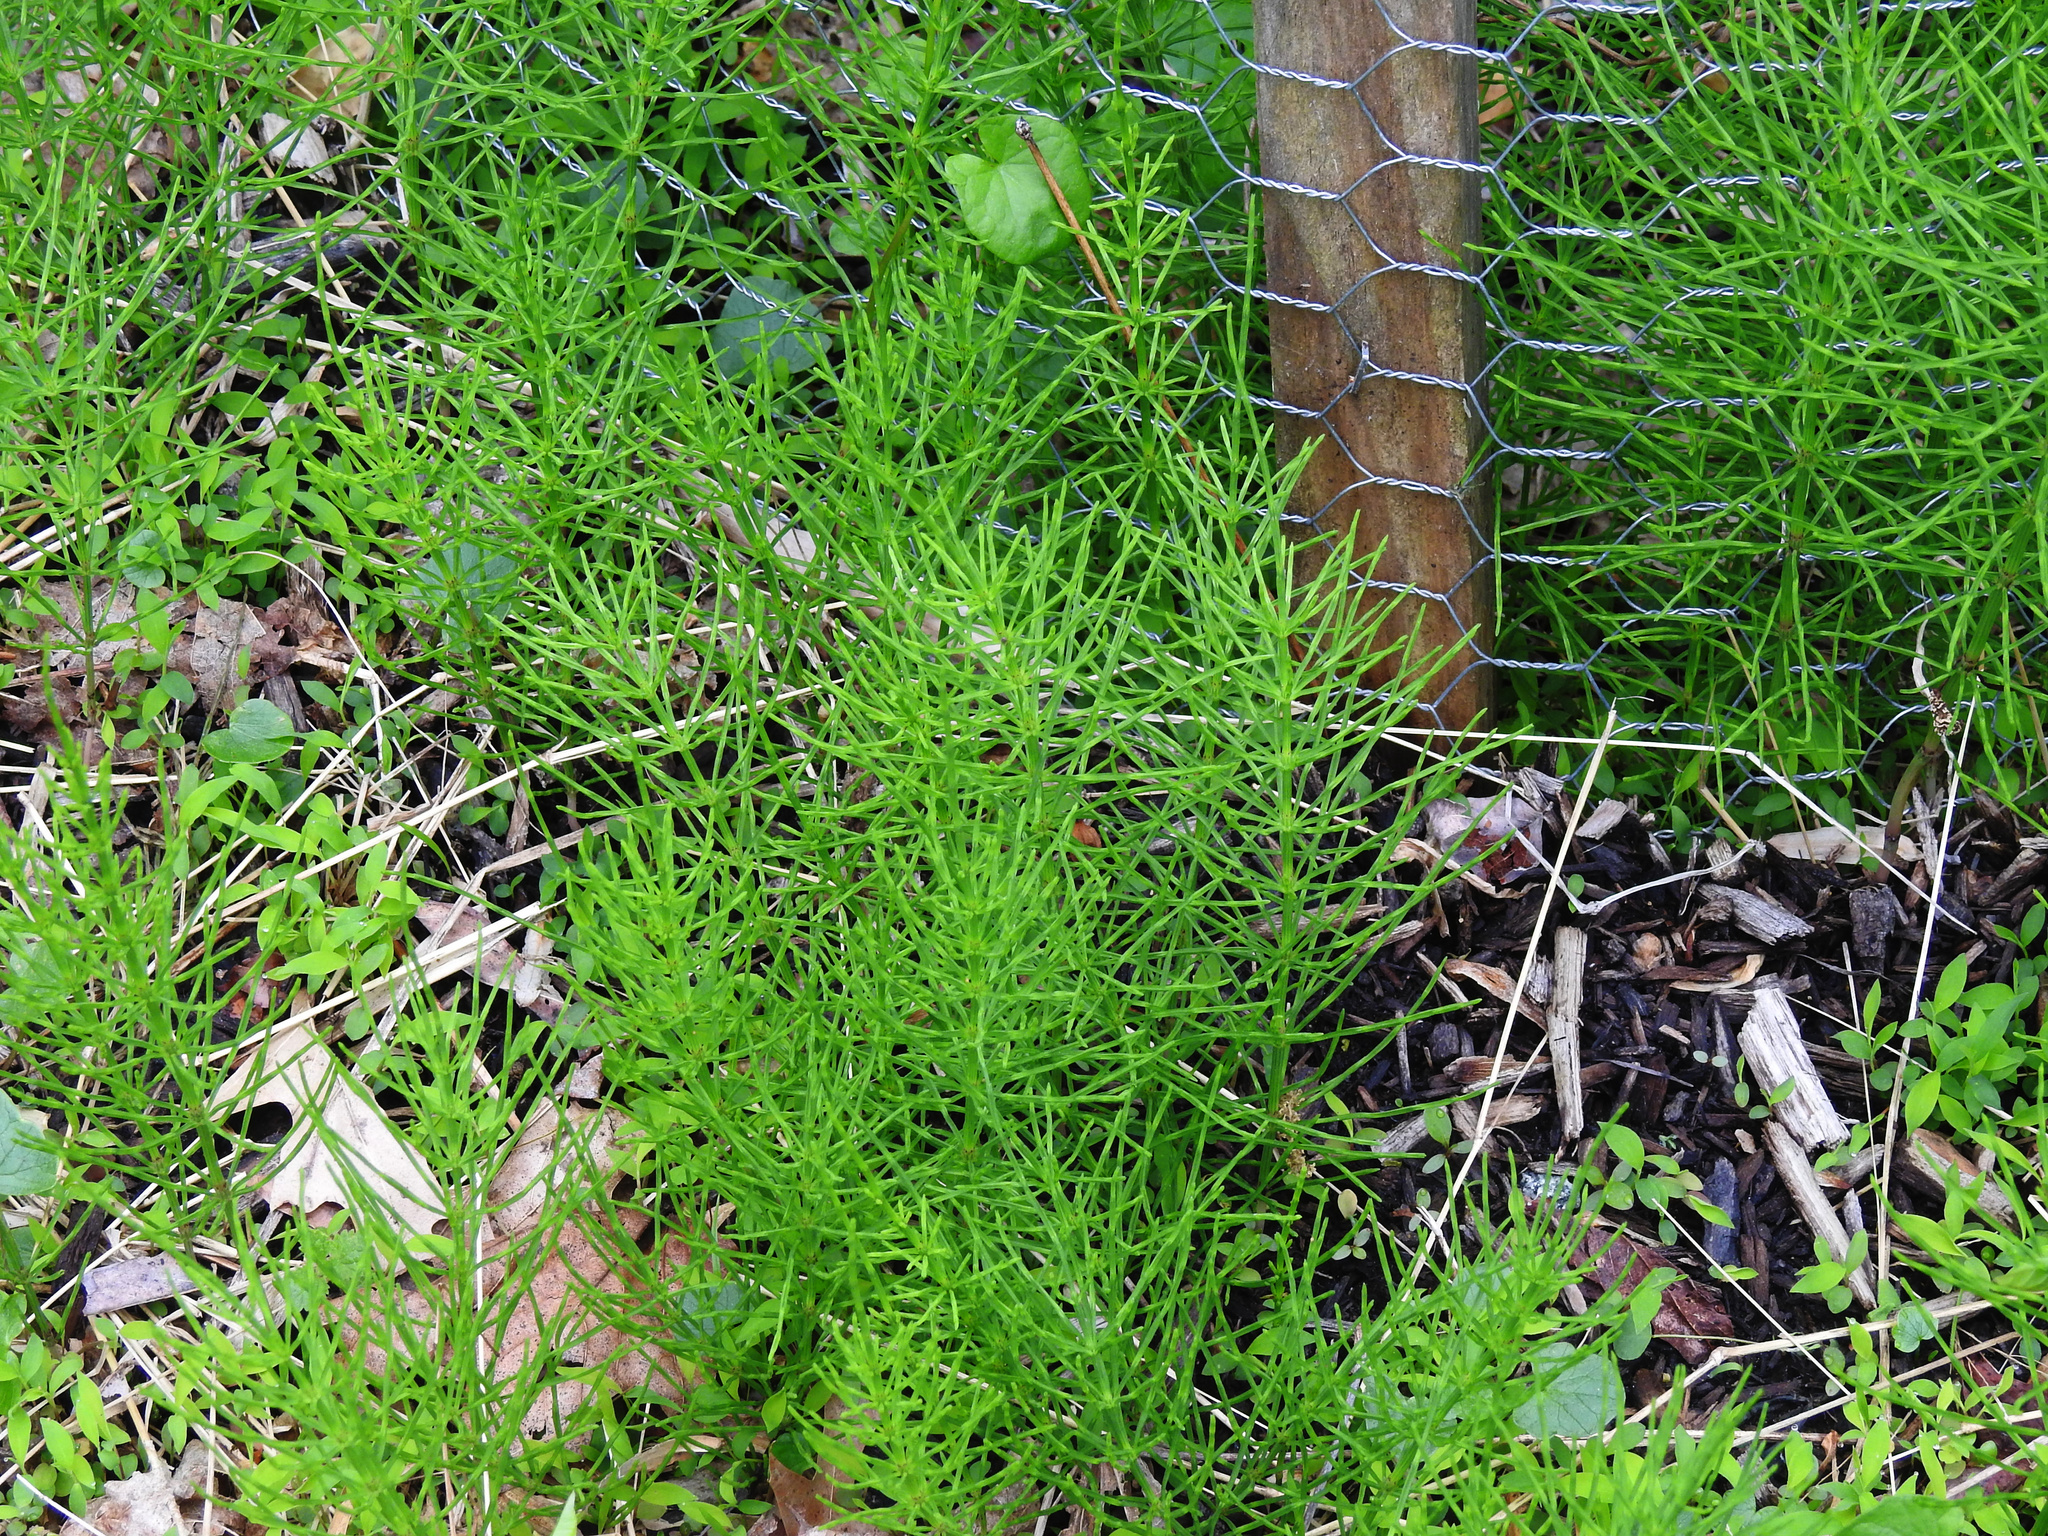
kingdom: Plantae
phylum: Tracheophyta
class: Polypodiopsida
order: Equisetales
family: Equisetaceae
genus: Equisetum
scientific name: Equisetum arvense
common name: Field horsetail
